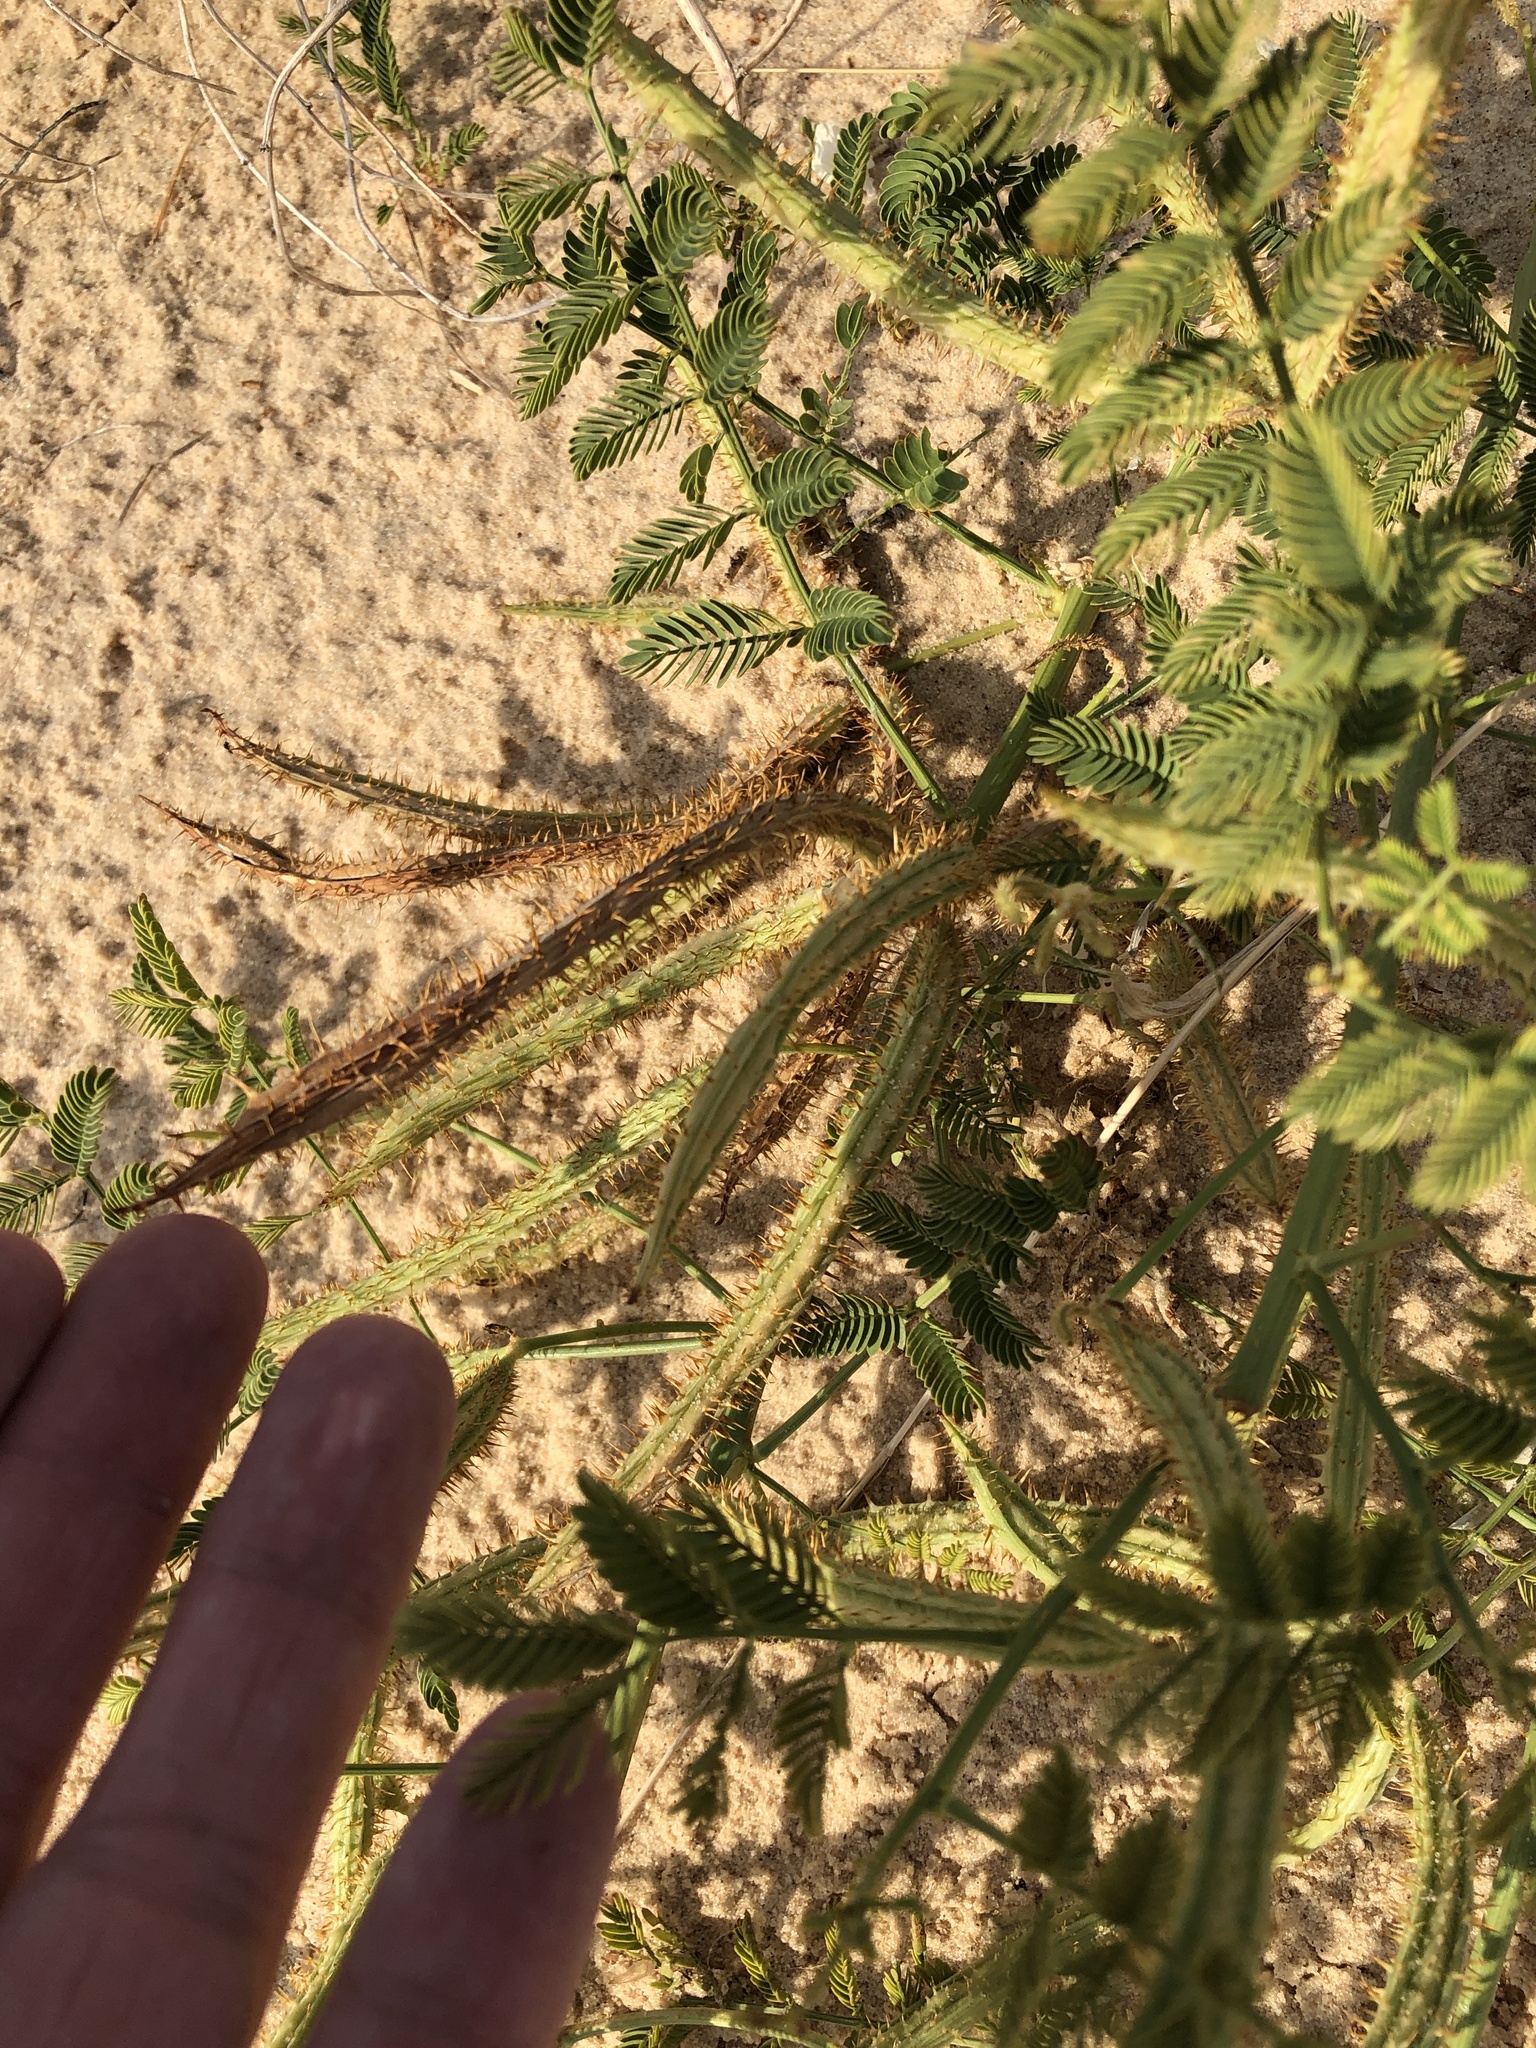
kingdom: Plantae
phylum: Tracheophyta
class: Magnoliopsida
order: Fabales
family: Fabaceae
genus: Mimosa
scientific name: Mimosa quadrivalvis
